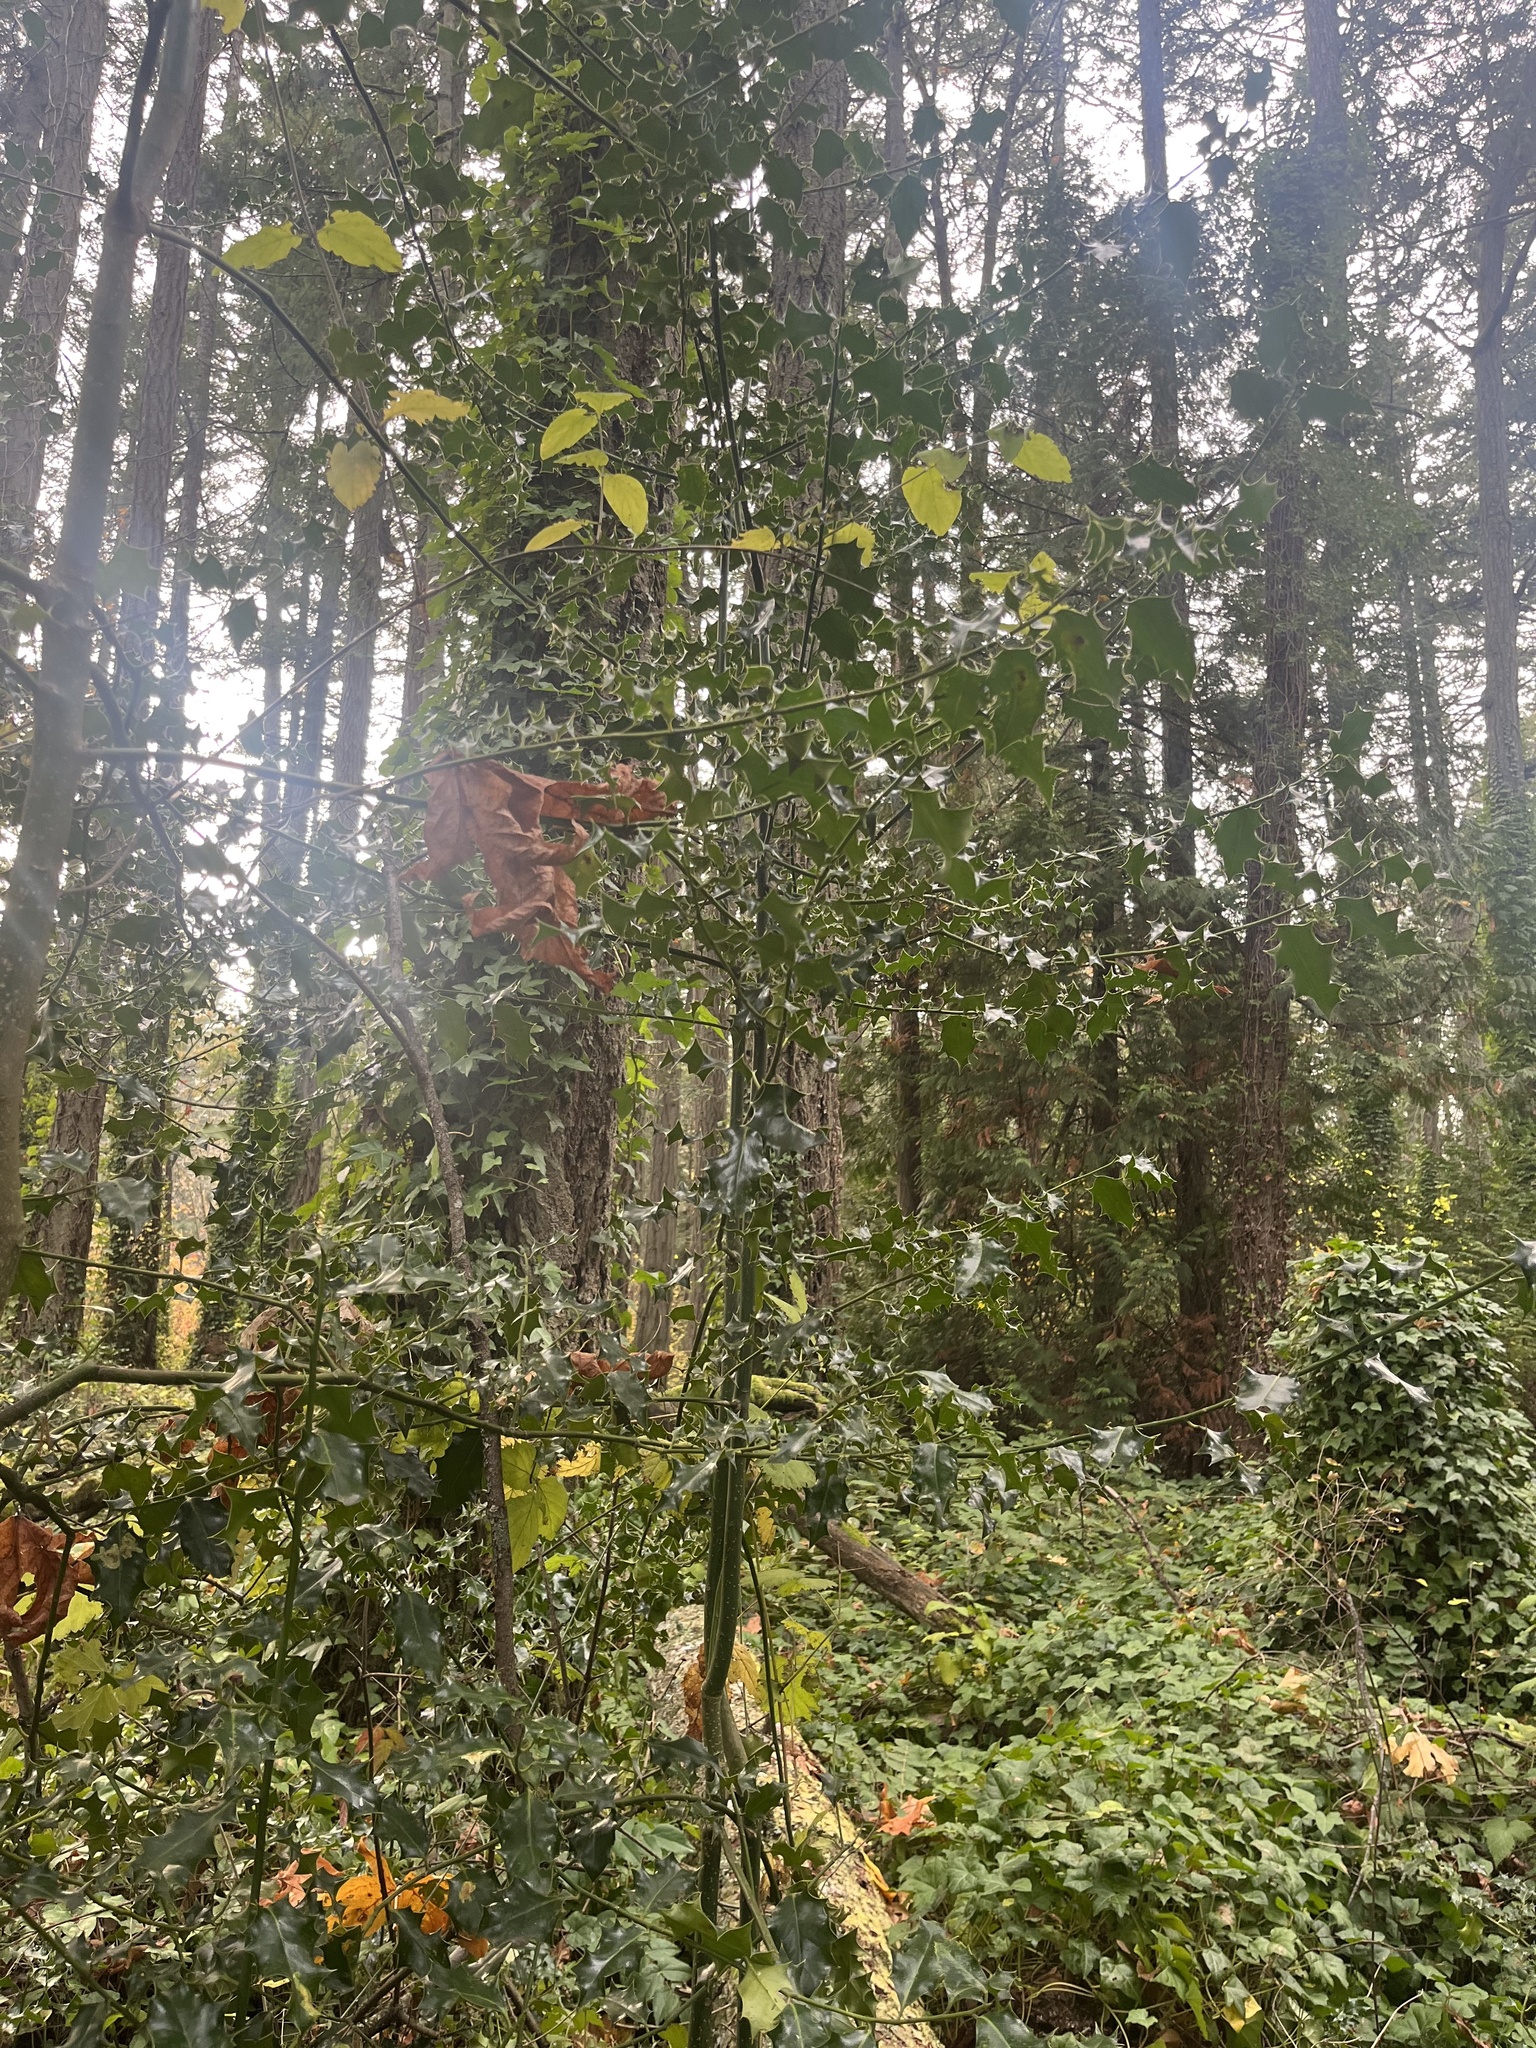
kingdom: Plantae
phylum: Tracheophyta
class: Magnoliopsida
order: Aquifoliales
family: Aquifoliaceae
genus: Ilex
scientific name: Ilex aquifolium
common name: English holly
